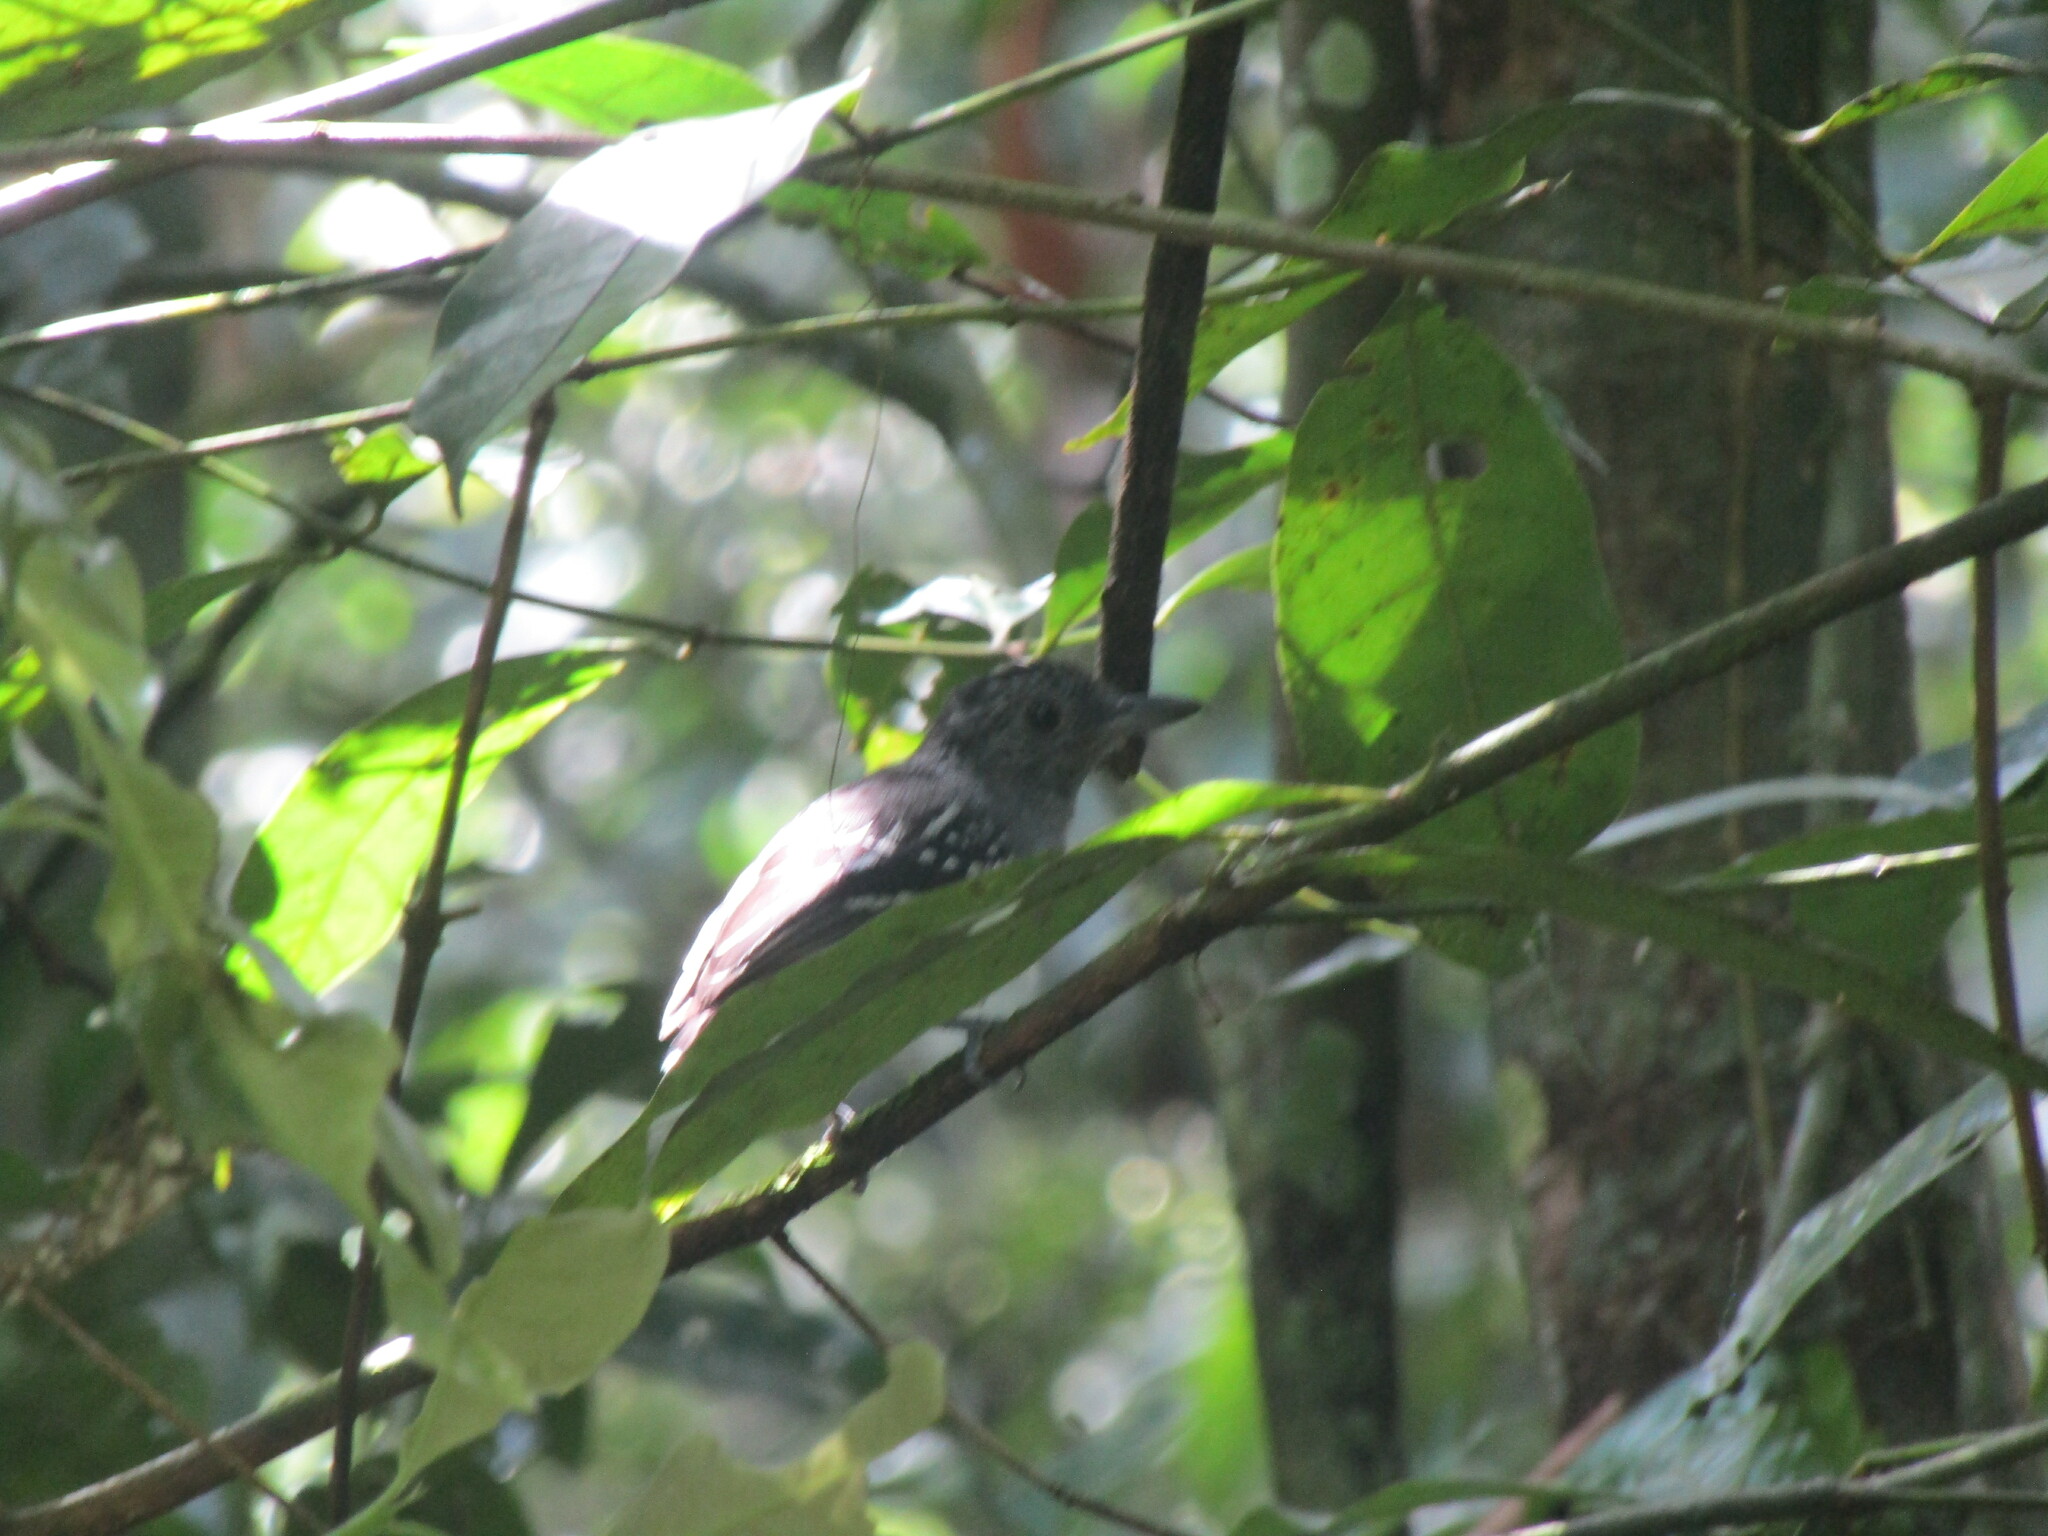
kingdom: Animalia
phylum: Chordata
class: Aves
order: Passeriformes
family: Thamnophilidae
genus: Thamnophilus
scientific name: Thamnophilus atrinucha
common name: Black-crowned antshrike
